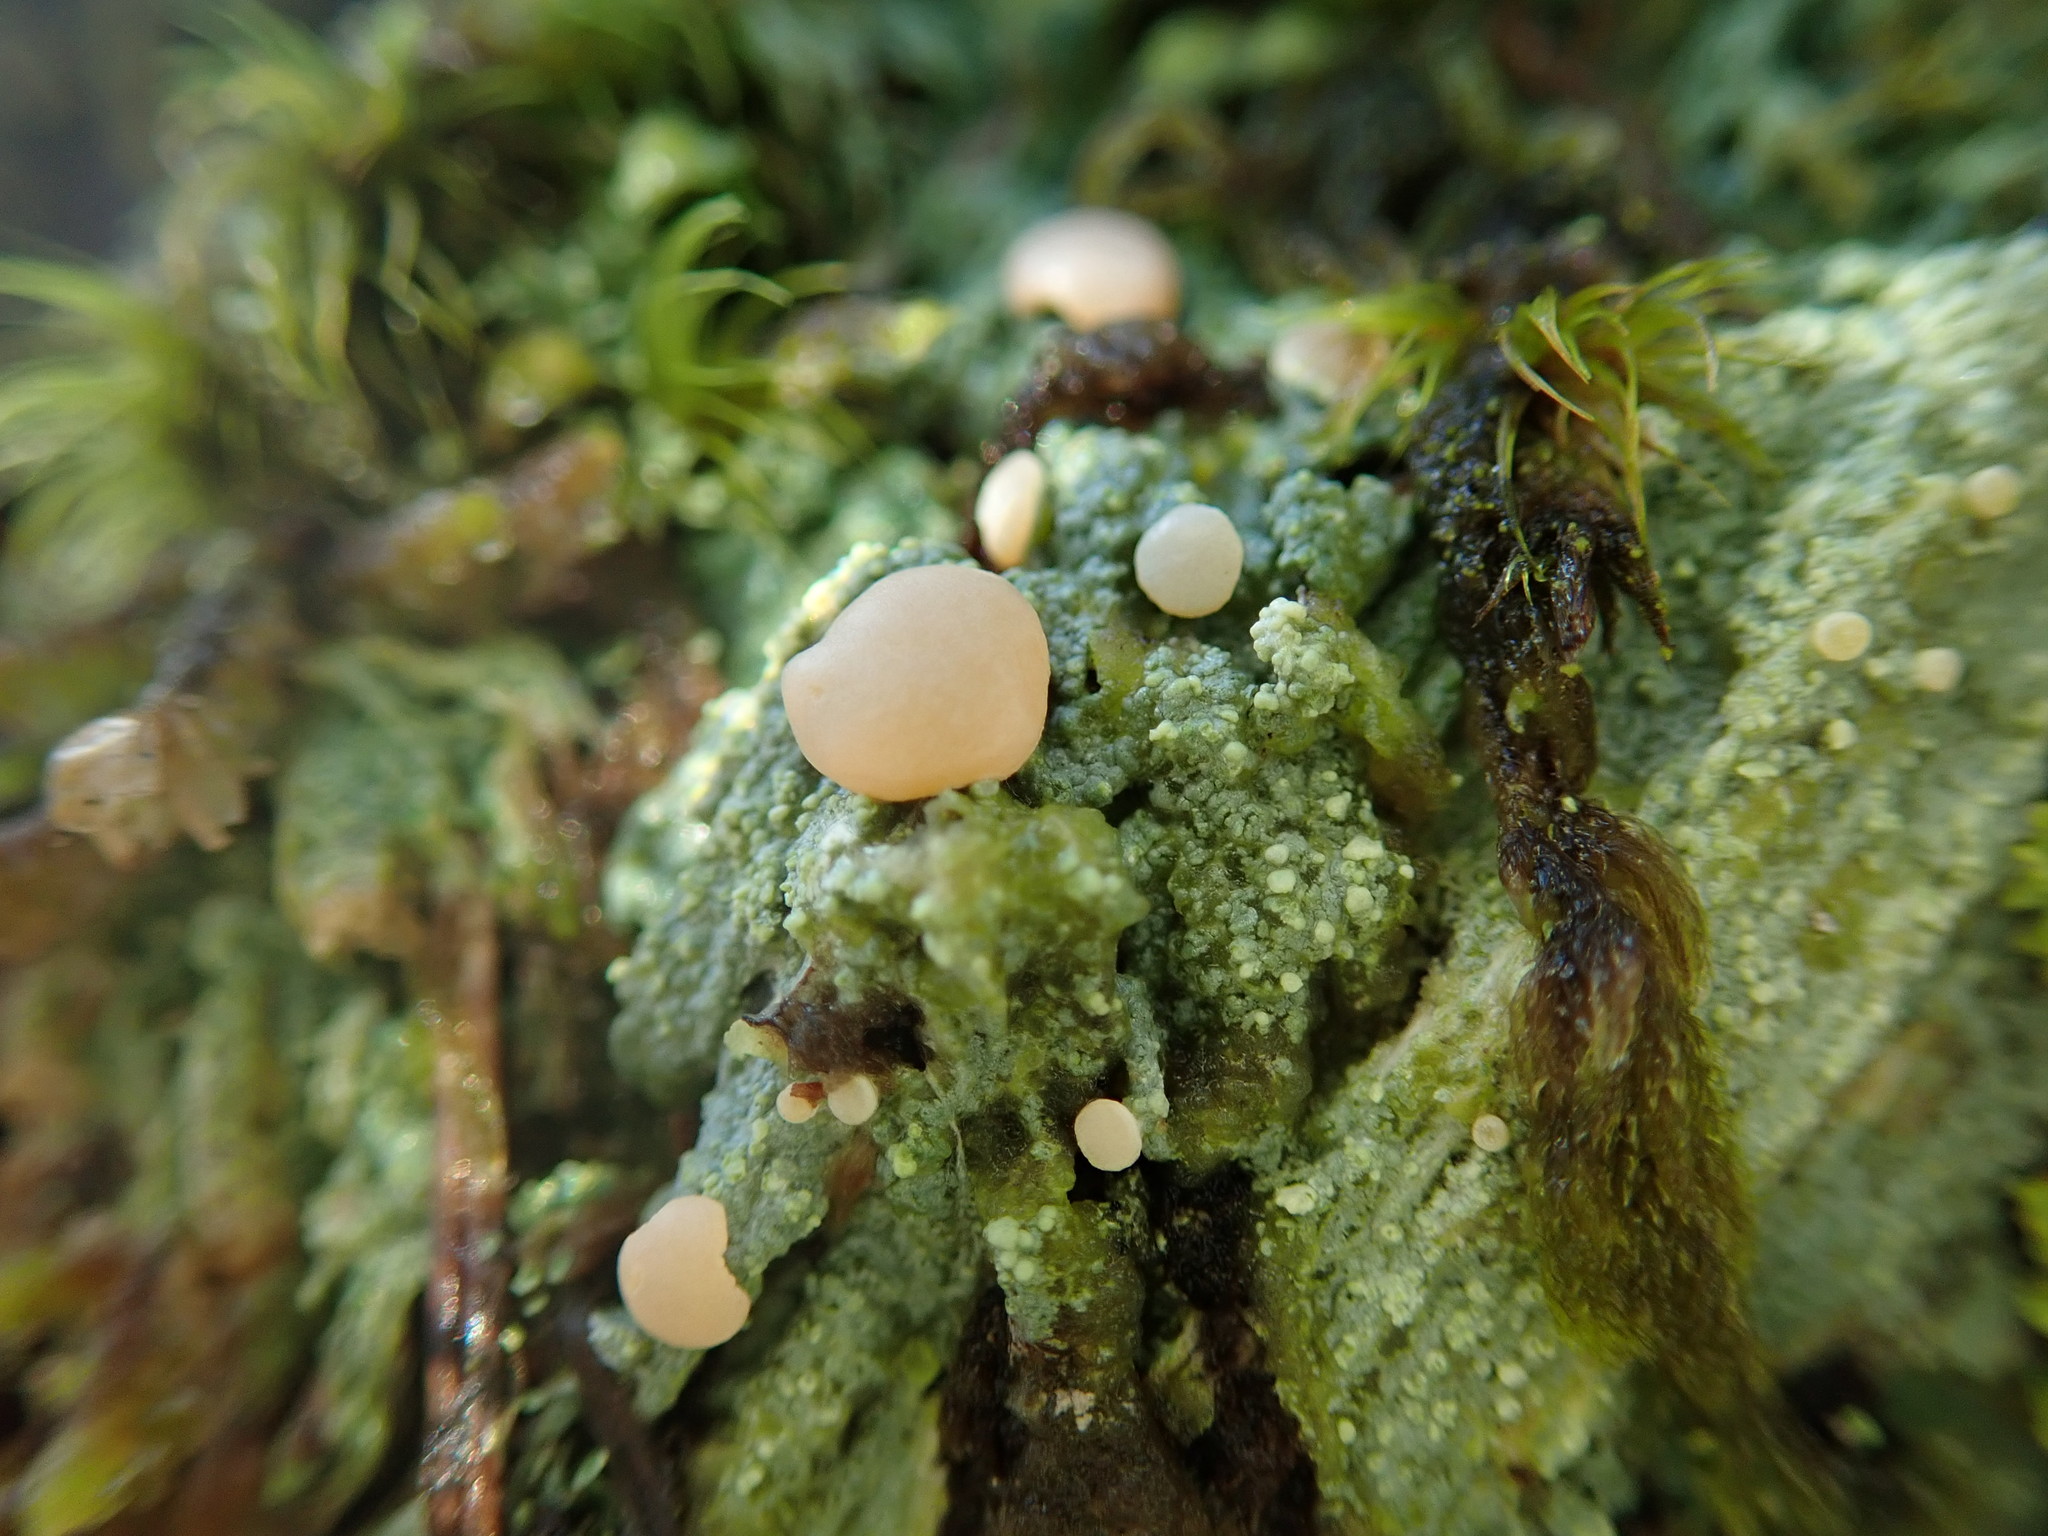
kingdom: Fungi
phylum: Ascomycota
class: Lecanoromycetes
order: Pertusariales
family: Icmadophilaceae
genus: Icmadophila
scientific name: Icmadophila ericetorum
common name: Candy lichen
